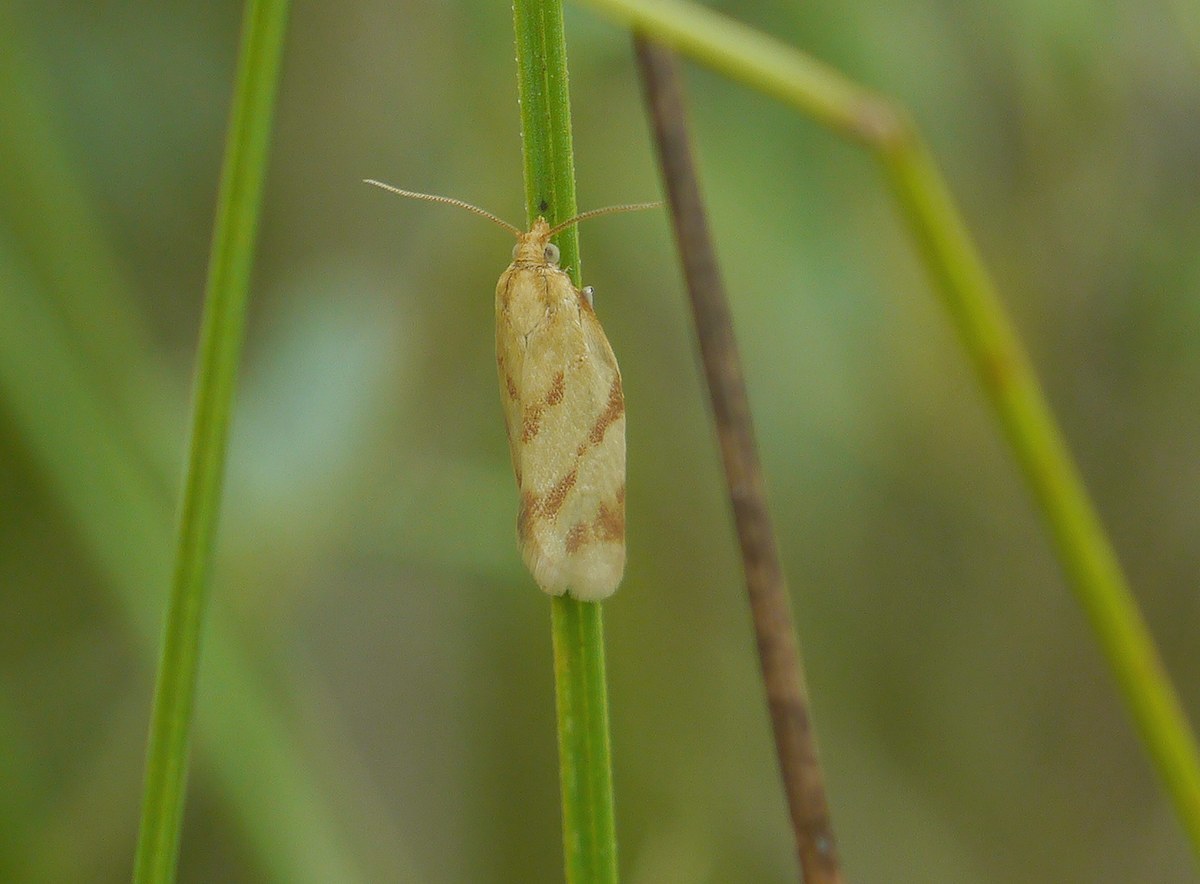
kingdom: Animalia
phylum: Arthropoda
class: Insecta
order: Lepidoptera
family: Tortricidae
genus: Clepsis
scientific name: Clepsis pallidana
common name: Sheep's-bit conch
